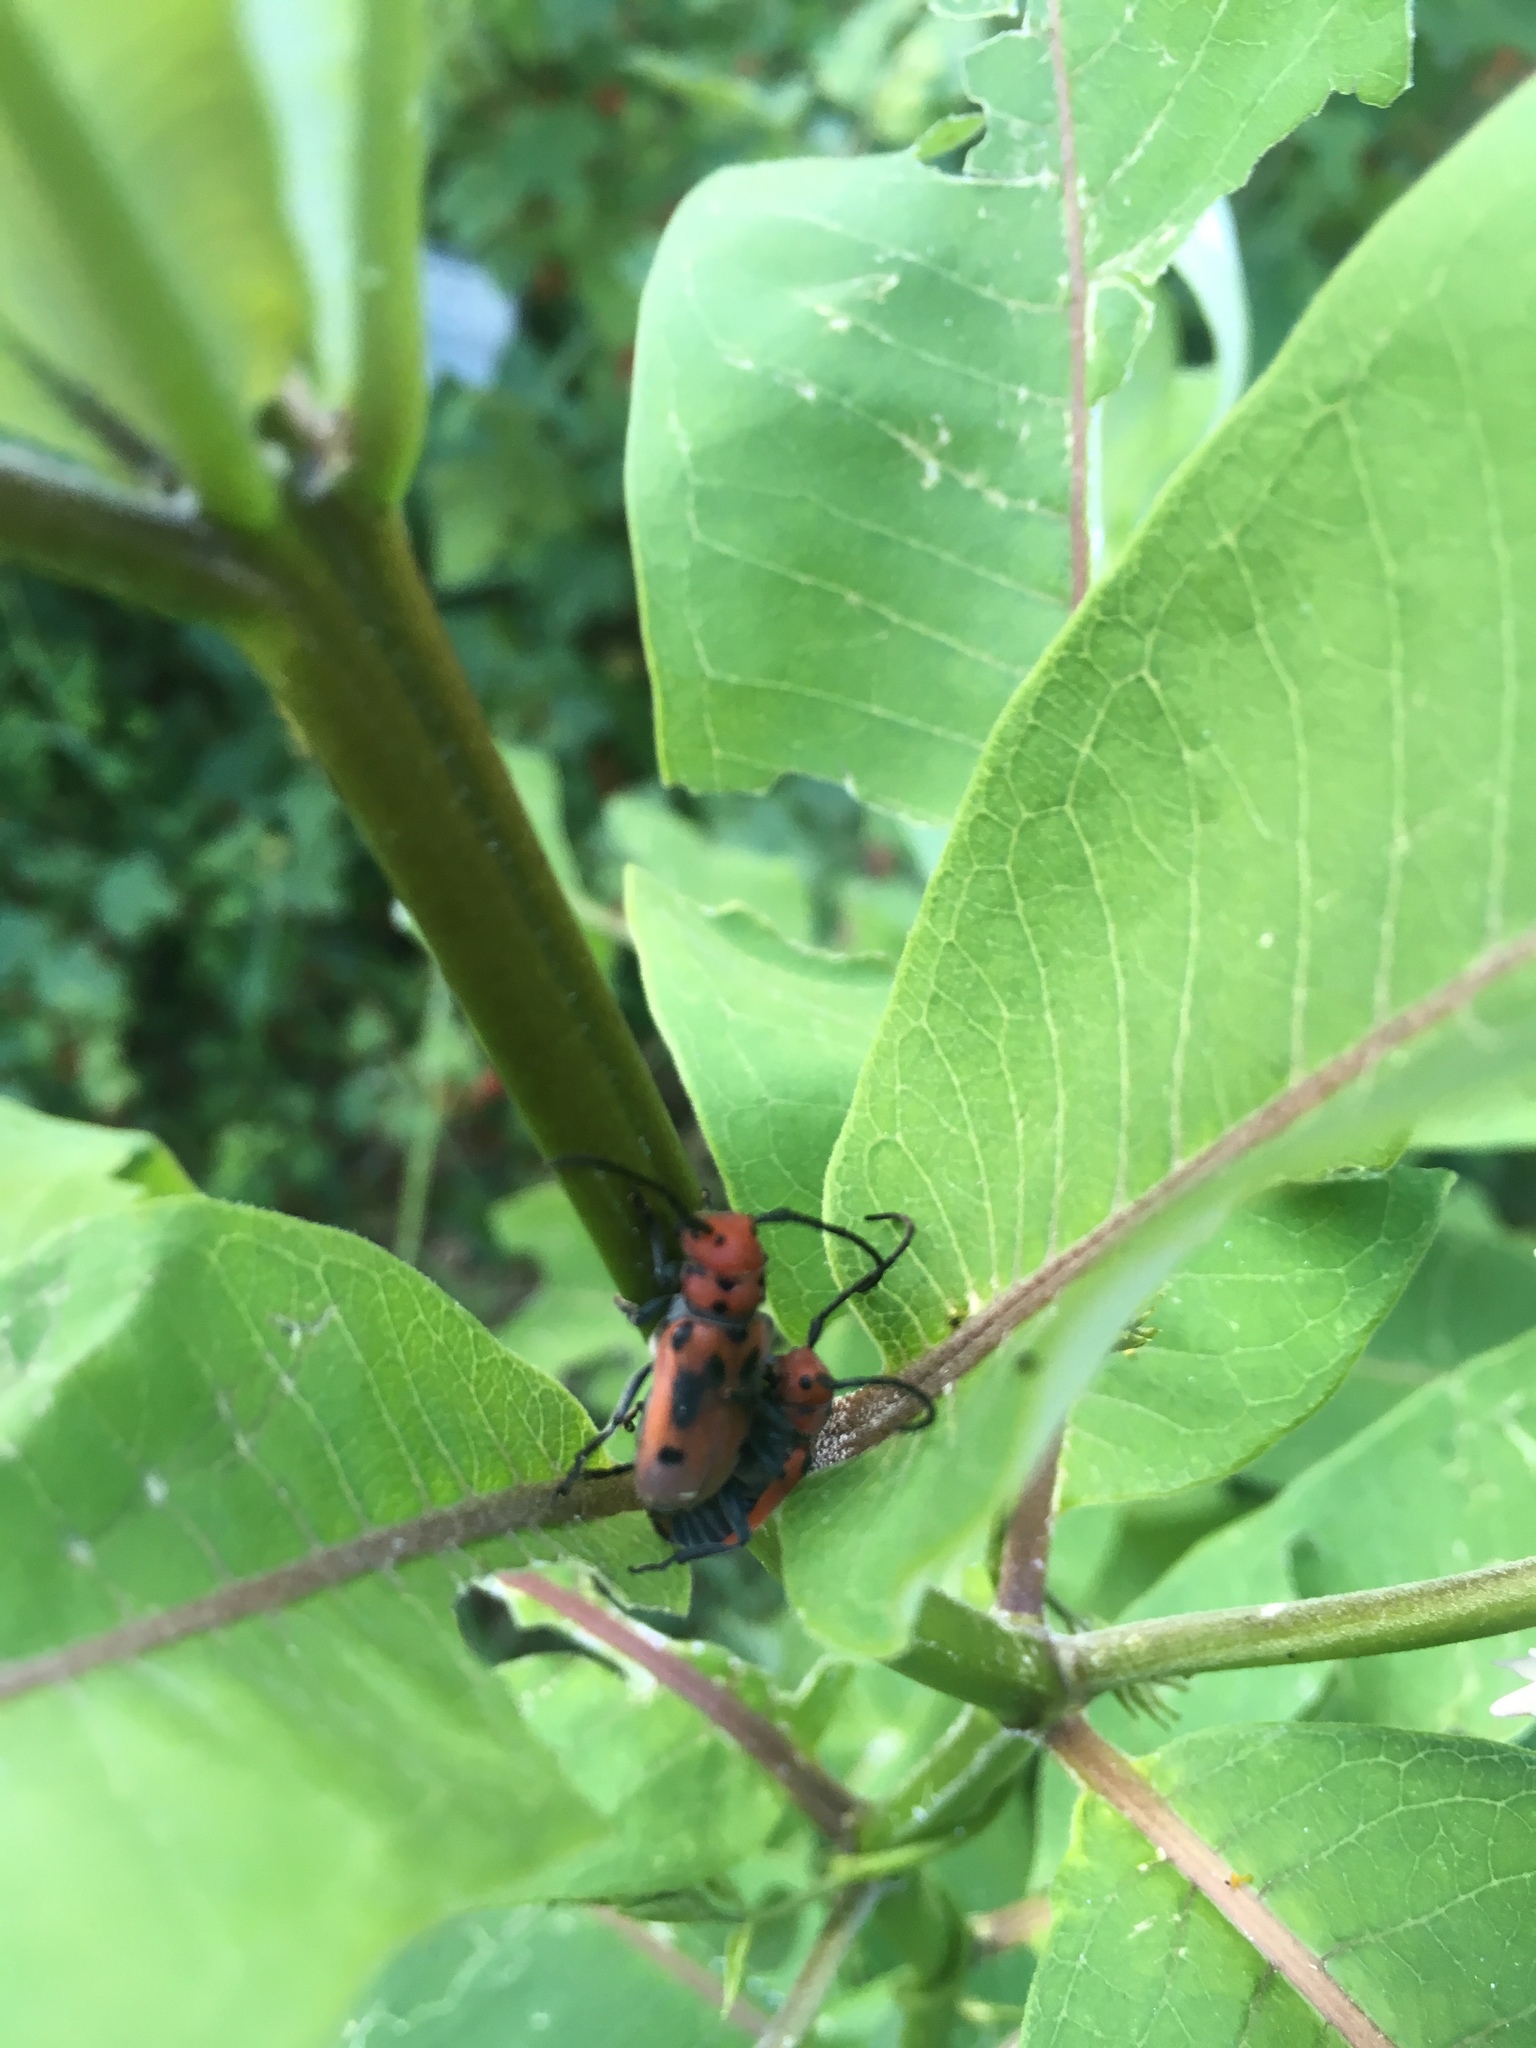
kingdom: Animalia
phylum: Arthropoda
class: Insecta
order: Coleoptera
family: Cerambycidae
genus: Tetraopes
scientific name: Tetraopes tetrophthalmus
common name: Red milkweed beetle
